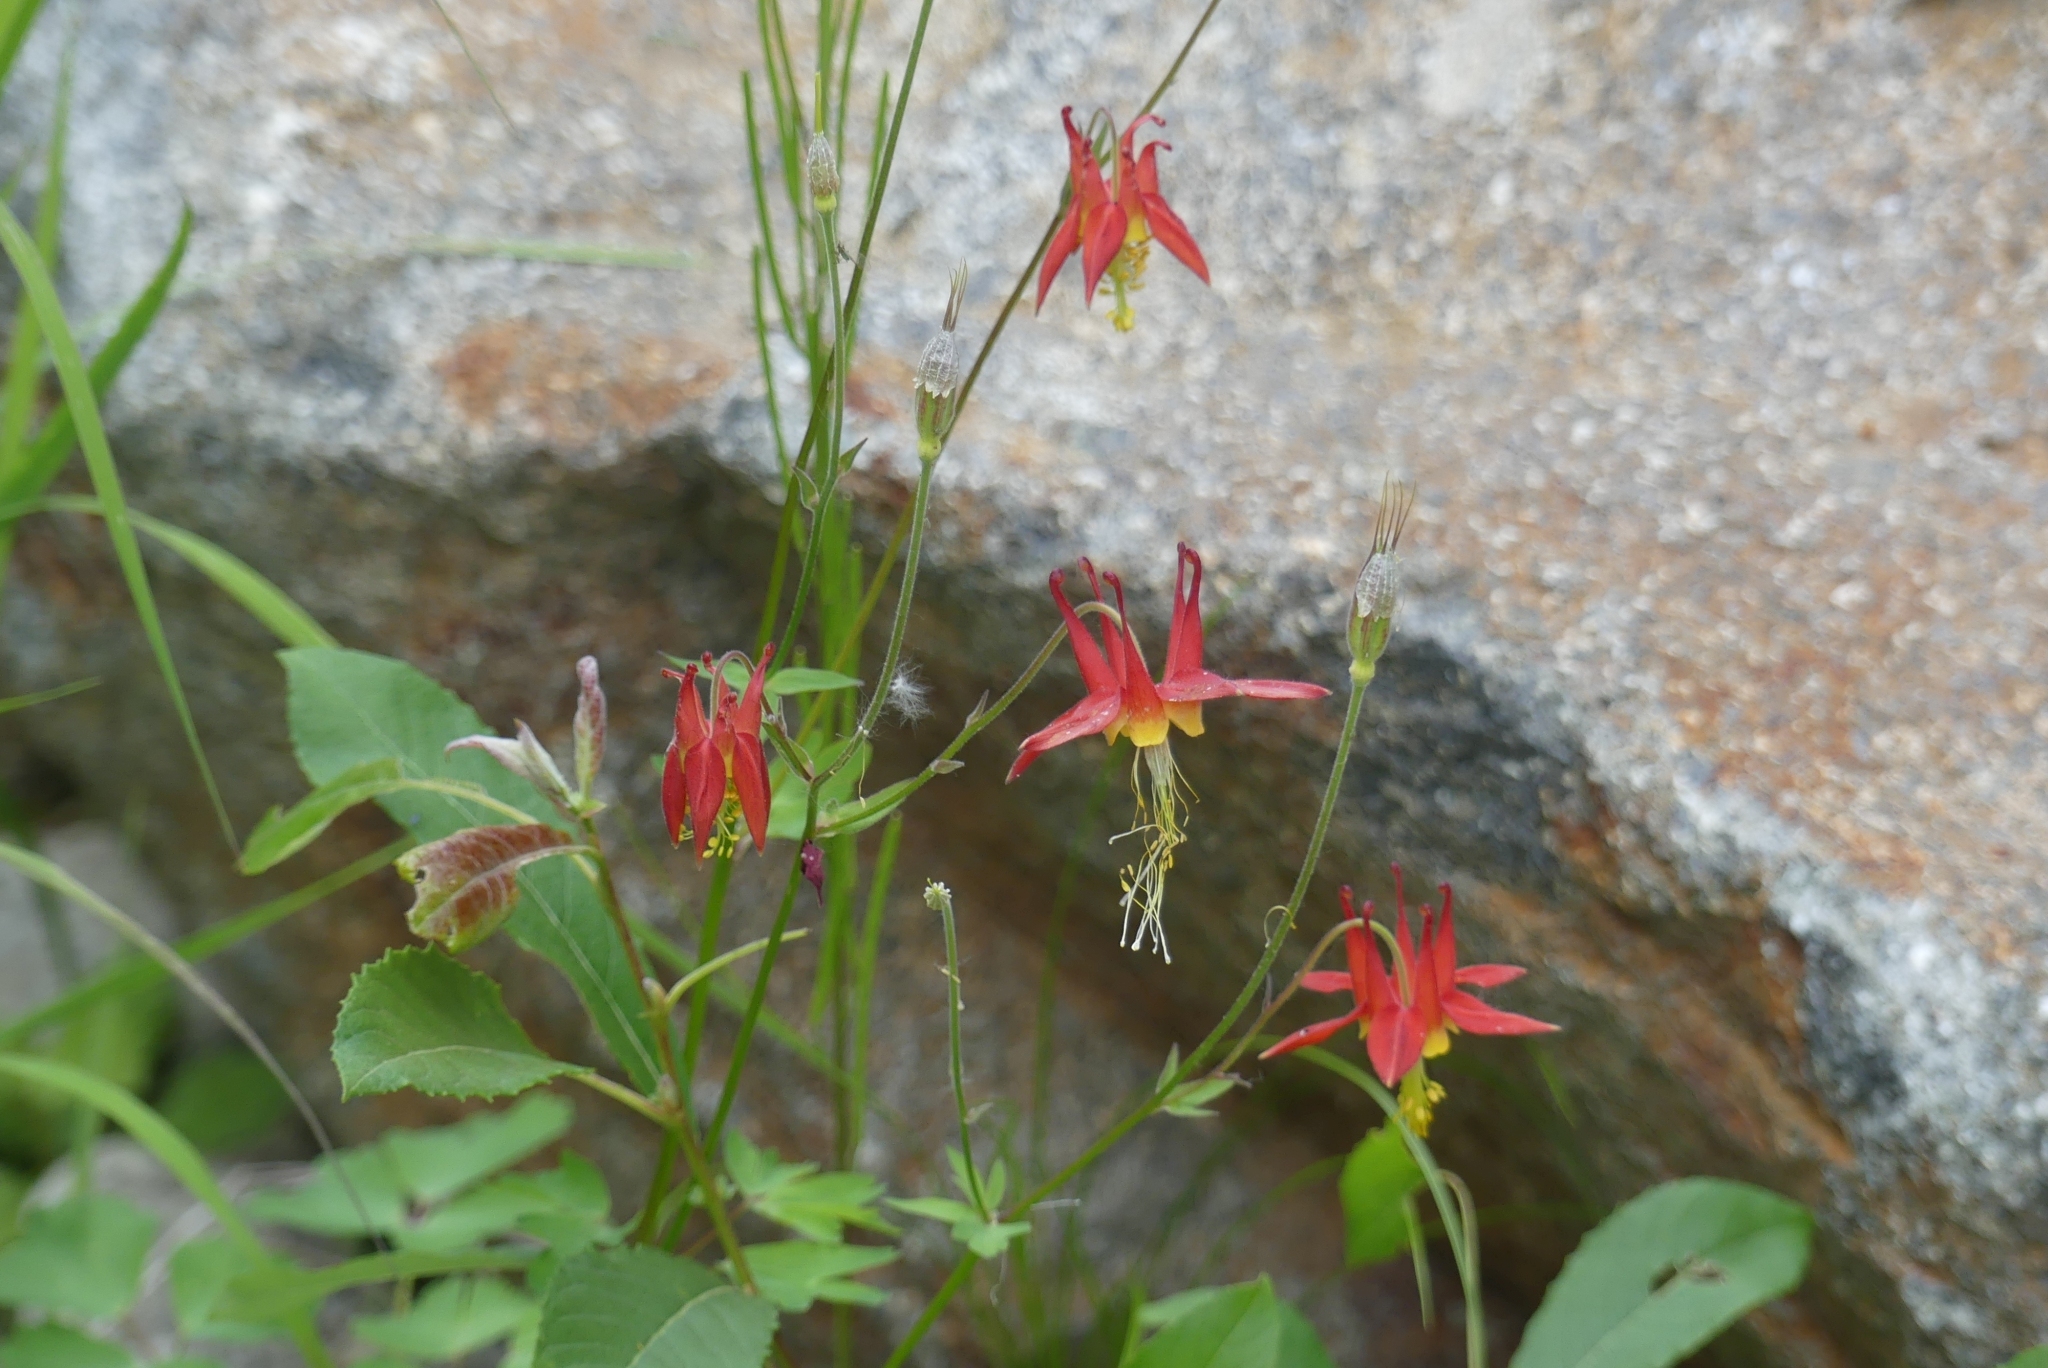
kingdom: Plantae
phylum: Tracheophyta
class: Magnoliopsida
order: Ranunculales
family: Ranunculaceae
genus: Aquilegia
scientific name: Aquilegia formosa
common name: Sitka columbine
